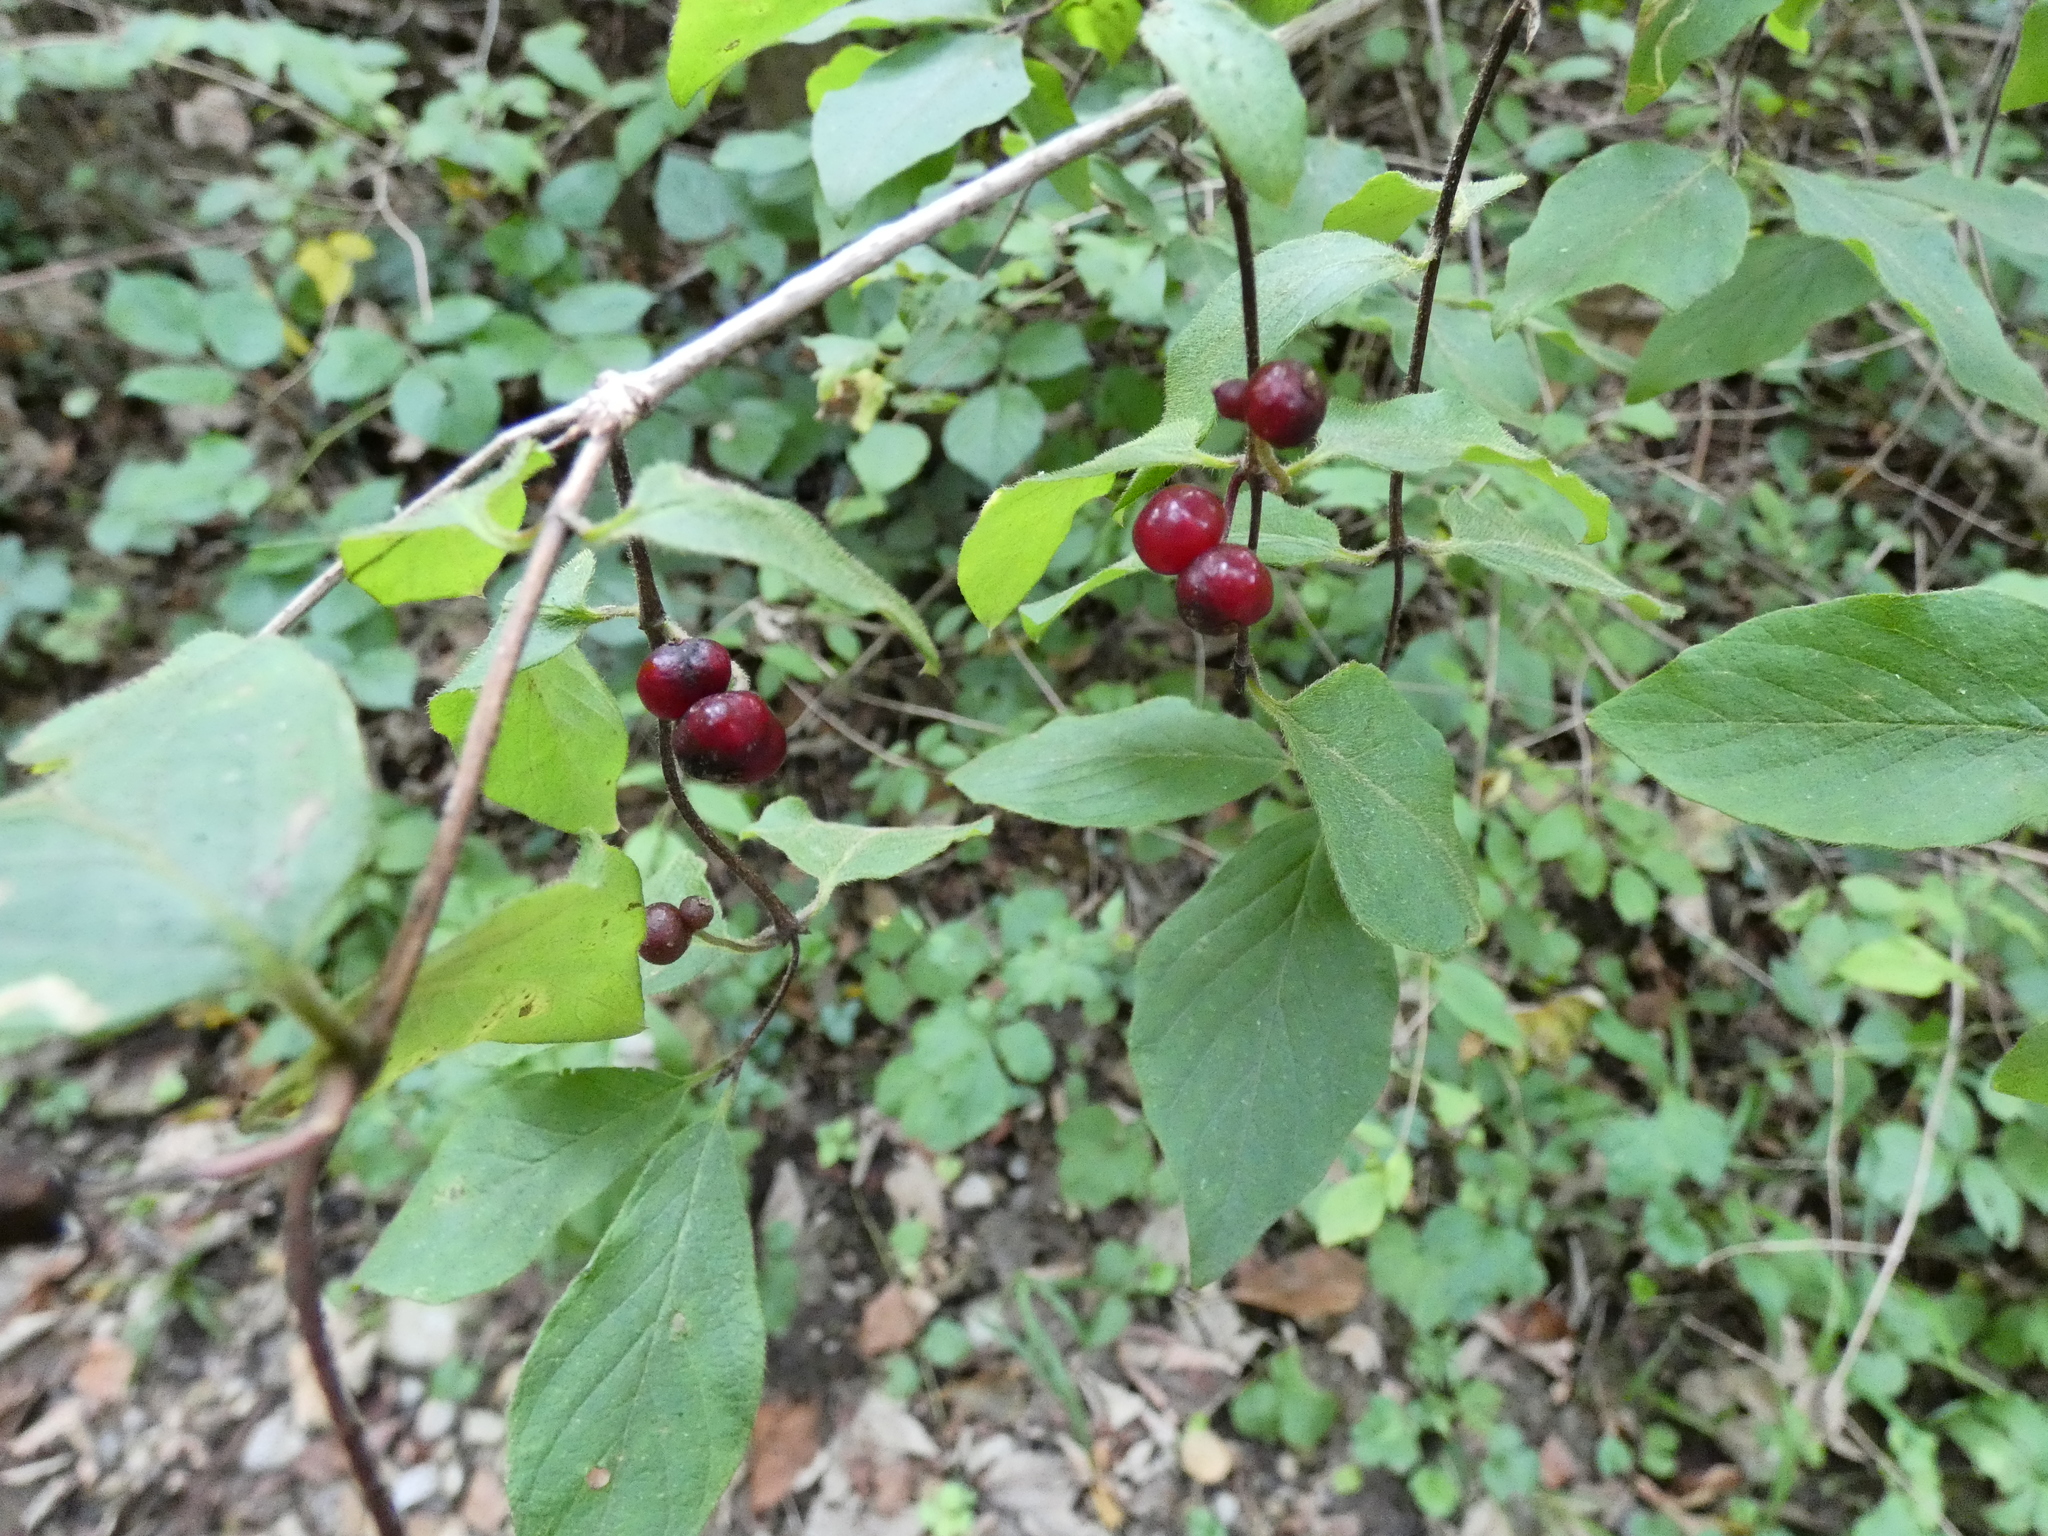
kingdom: Plantae
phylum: Tracheophyta
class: Magnoliopsida
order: Dipsacales
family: Caprifoliaceae
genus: Lonicera
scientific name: Lonicera xylosteum
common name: Fly honeysuckle
